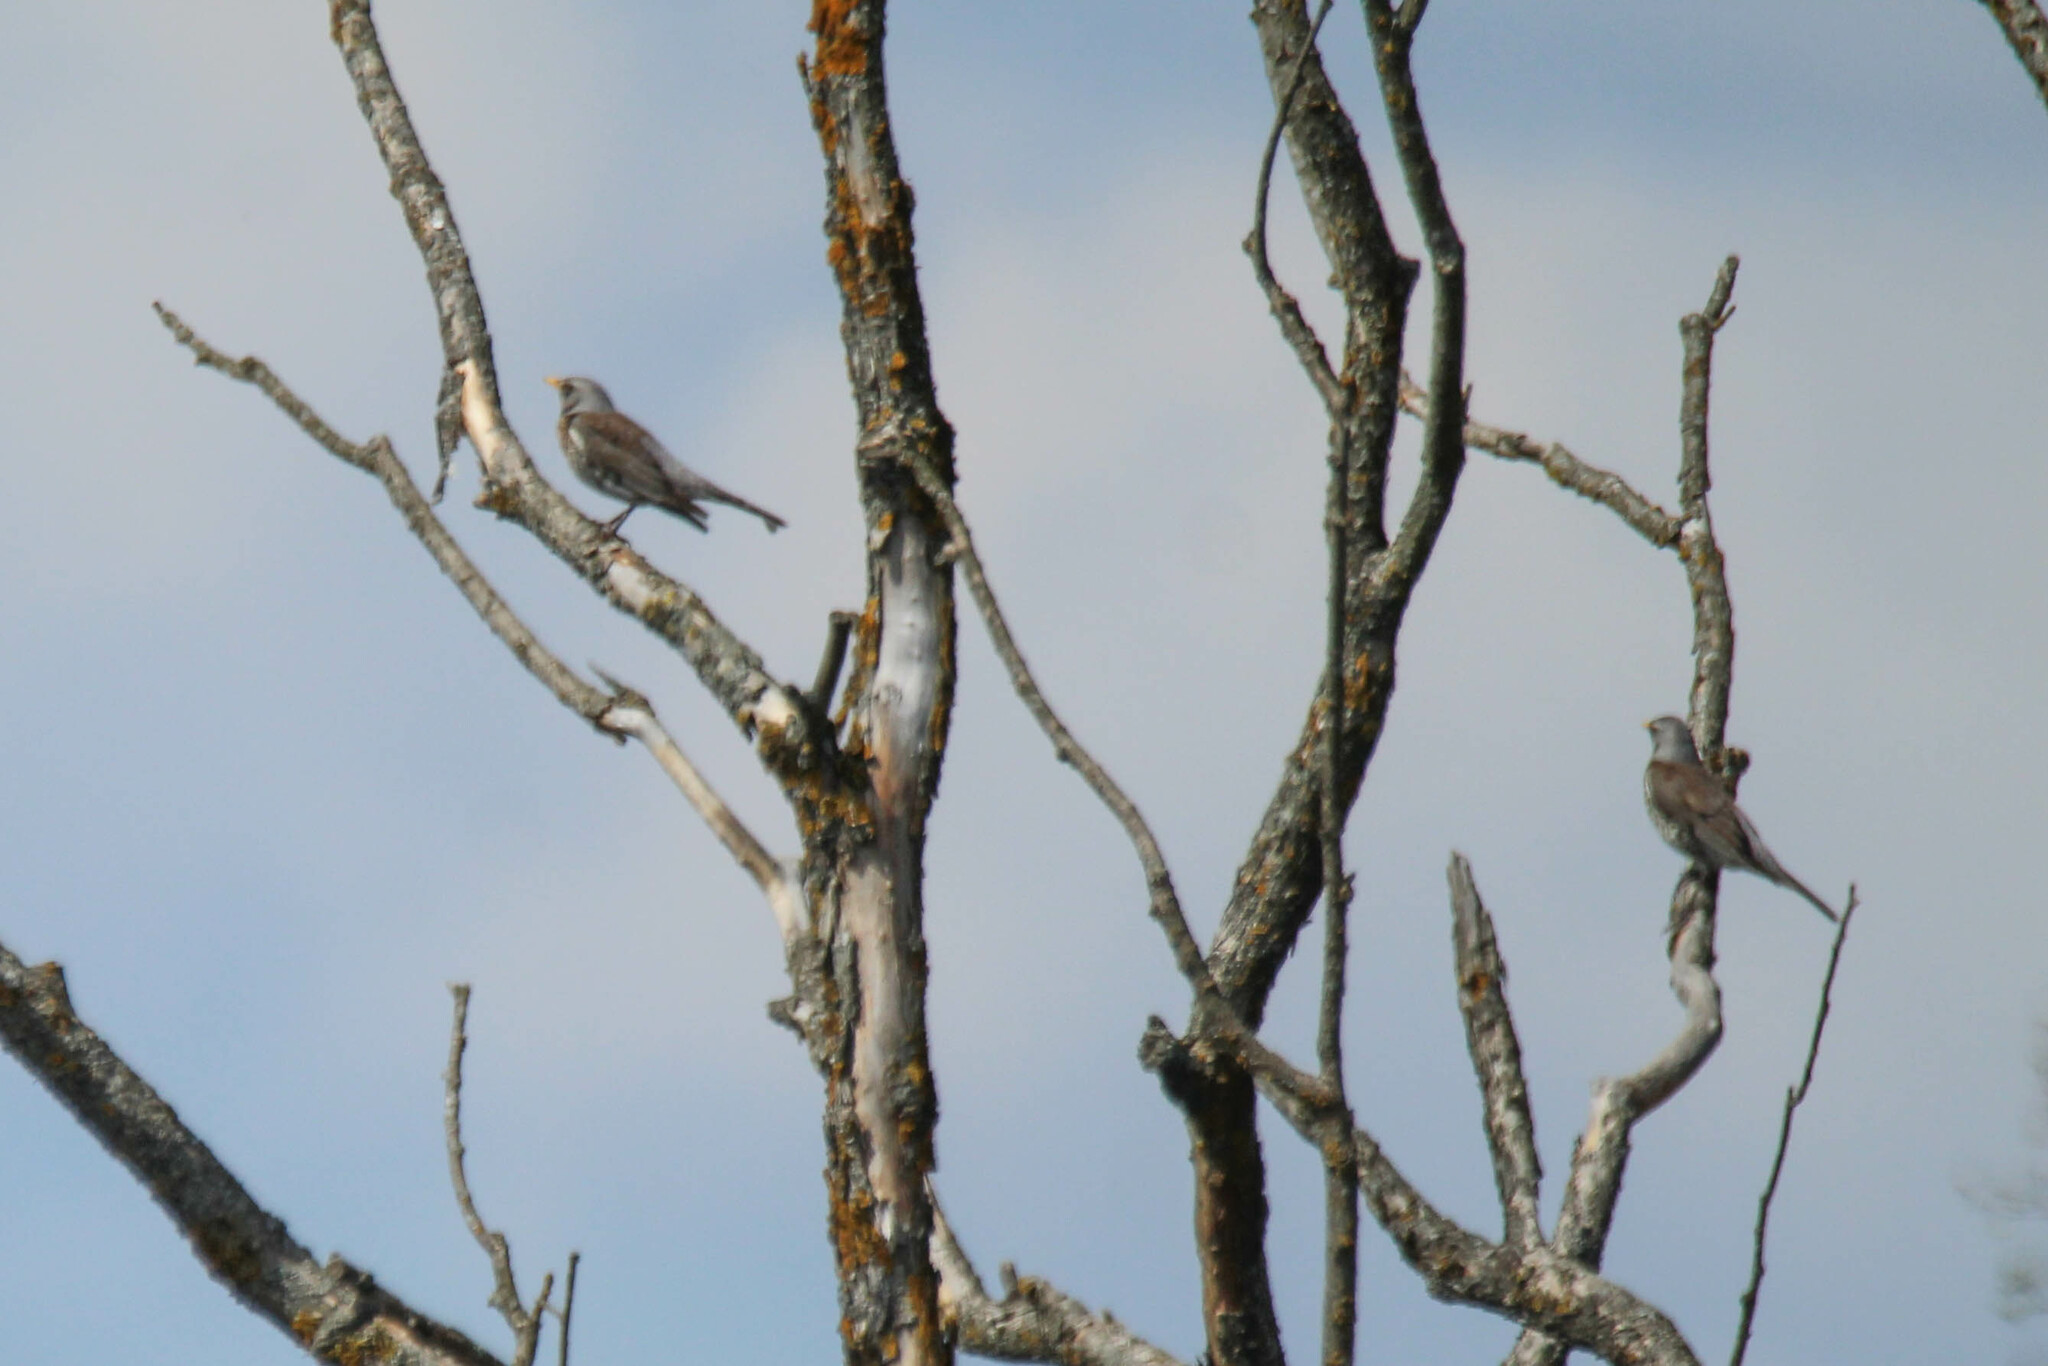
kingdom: Animalia
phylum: Chordata
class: Aves
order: Passeriformes
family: Turdidae
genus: Turdus
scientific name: Turdus pilaris
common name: Fieldfare
